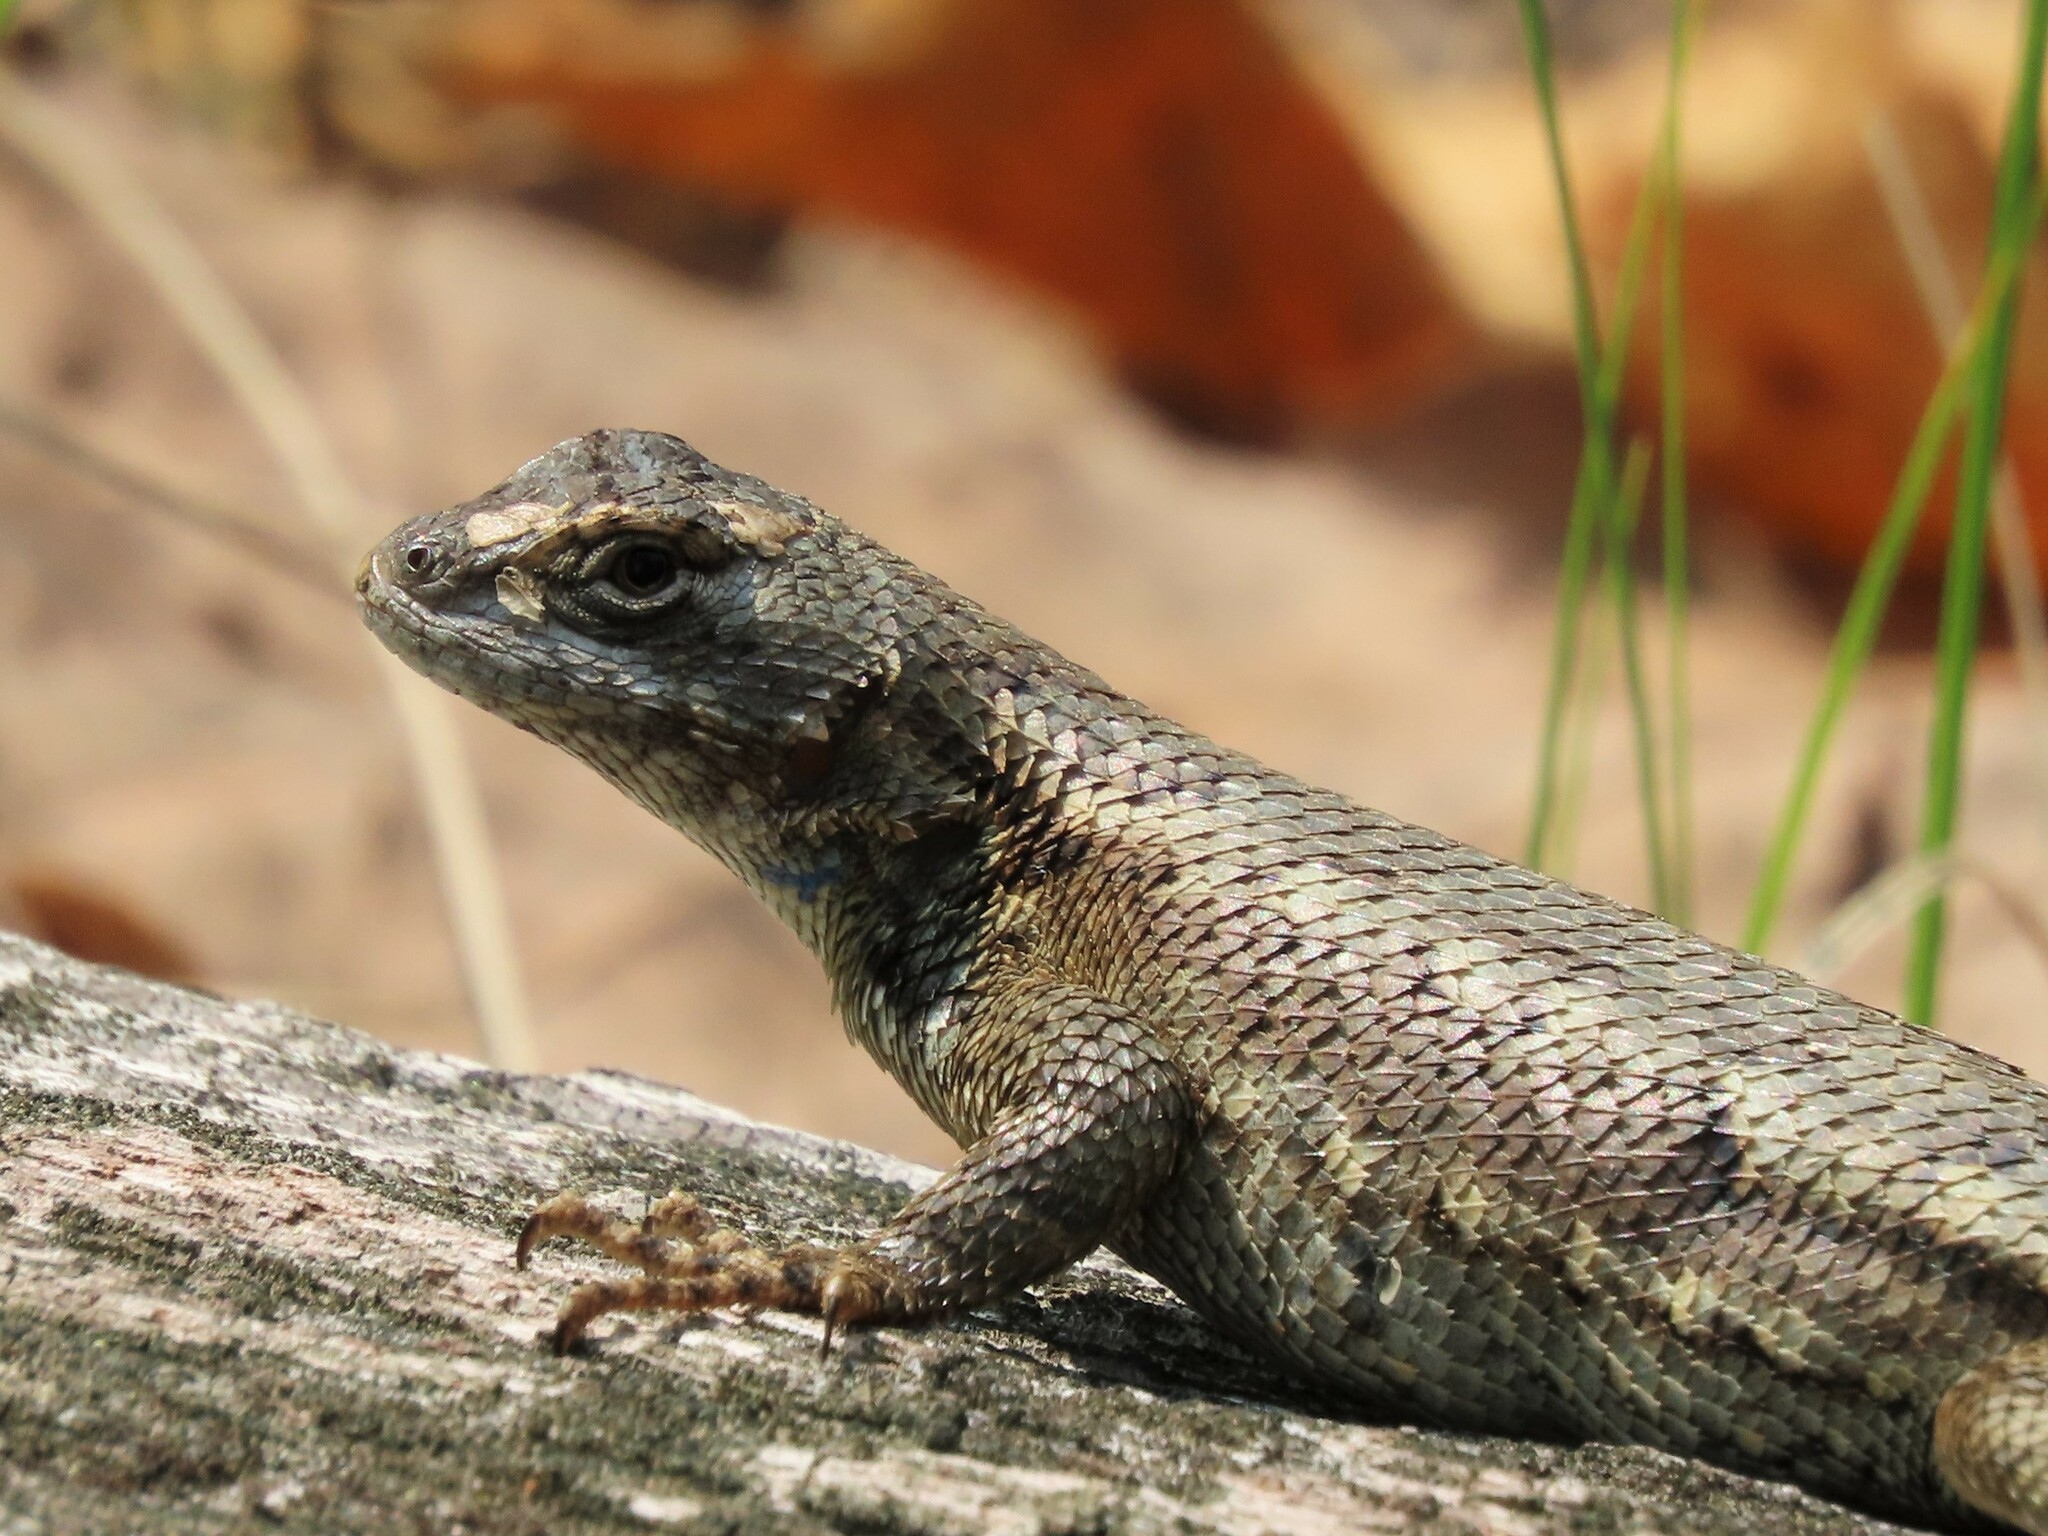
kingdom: Animalia
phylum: Chordata
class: Squamata
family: Phrynosomatidae
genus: Sceloporus
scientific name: Sceloporus undulatus
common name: Eastern fence lizard
